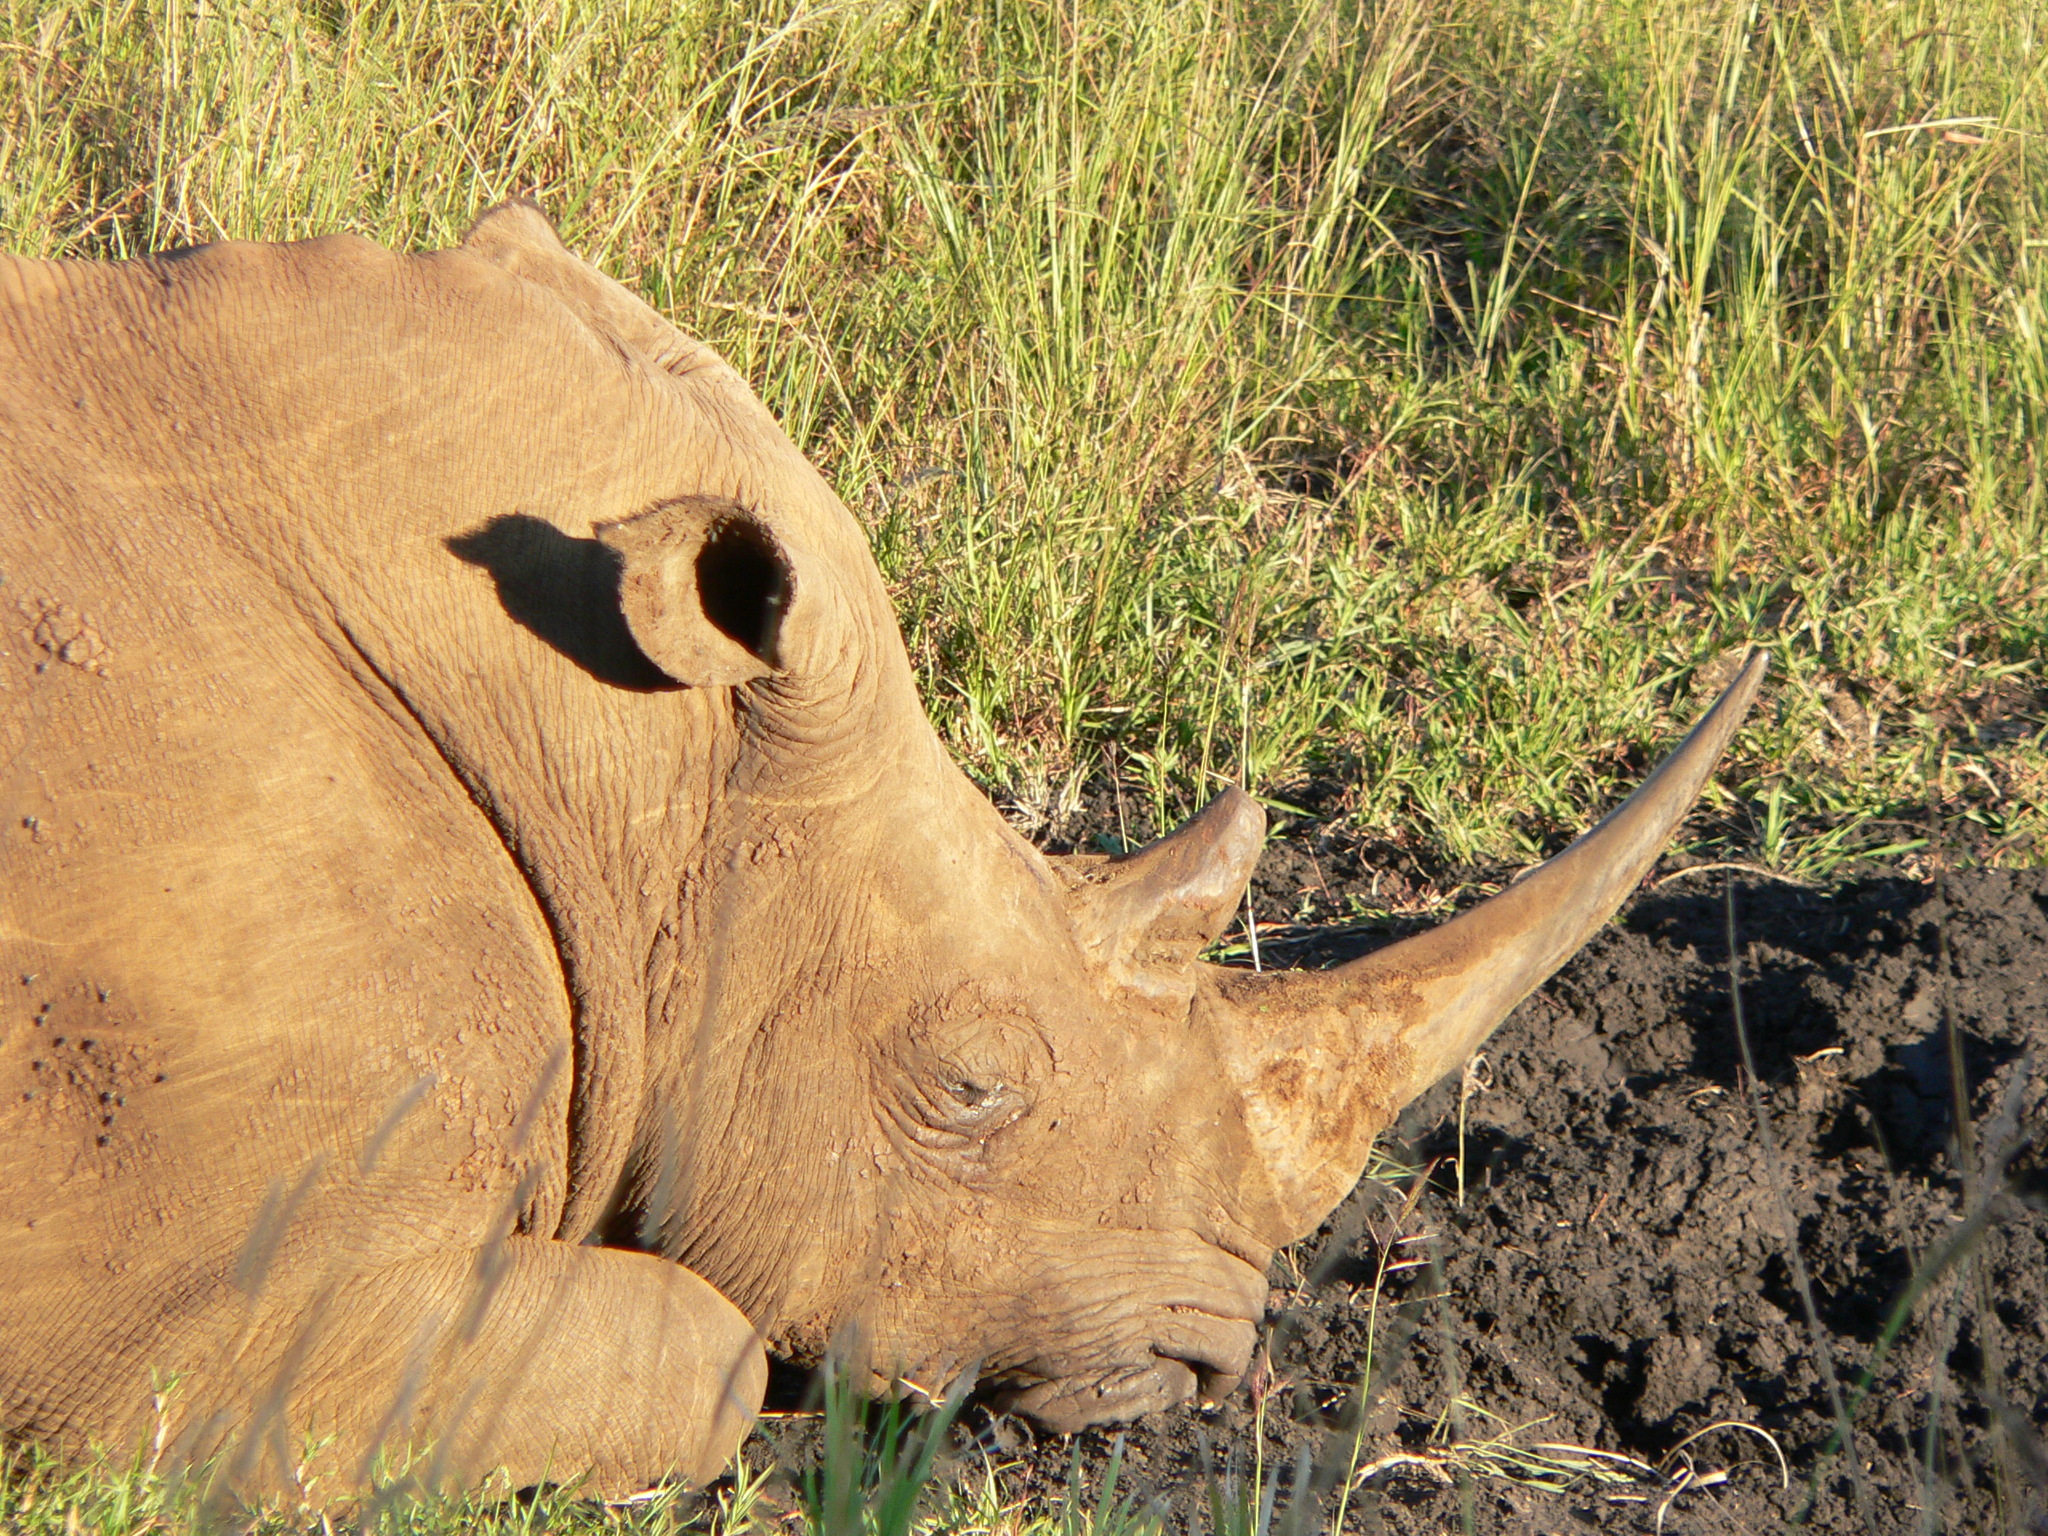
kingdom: Animalia
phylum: Chordata
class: Mammalia
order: Perissodactyla
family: Rhinocerotidae
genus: Ceratotherium
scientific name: Ceratotherium simum
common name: White rhinoceros
